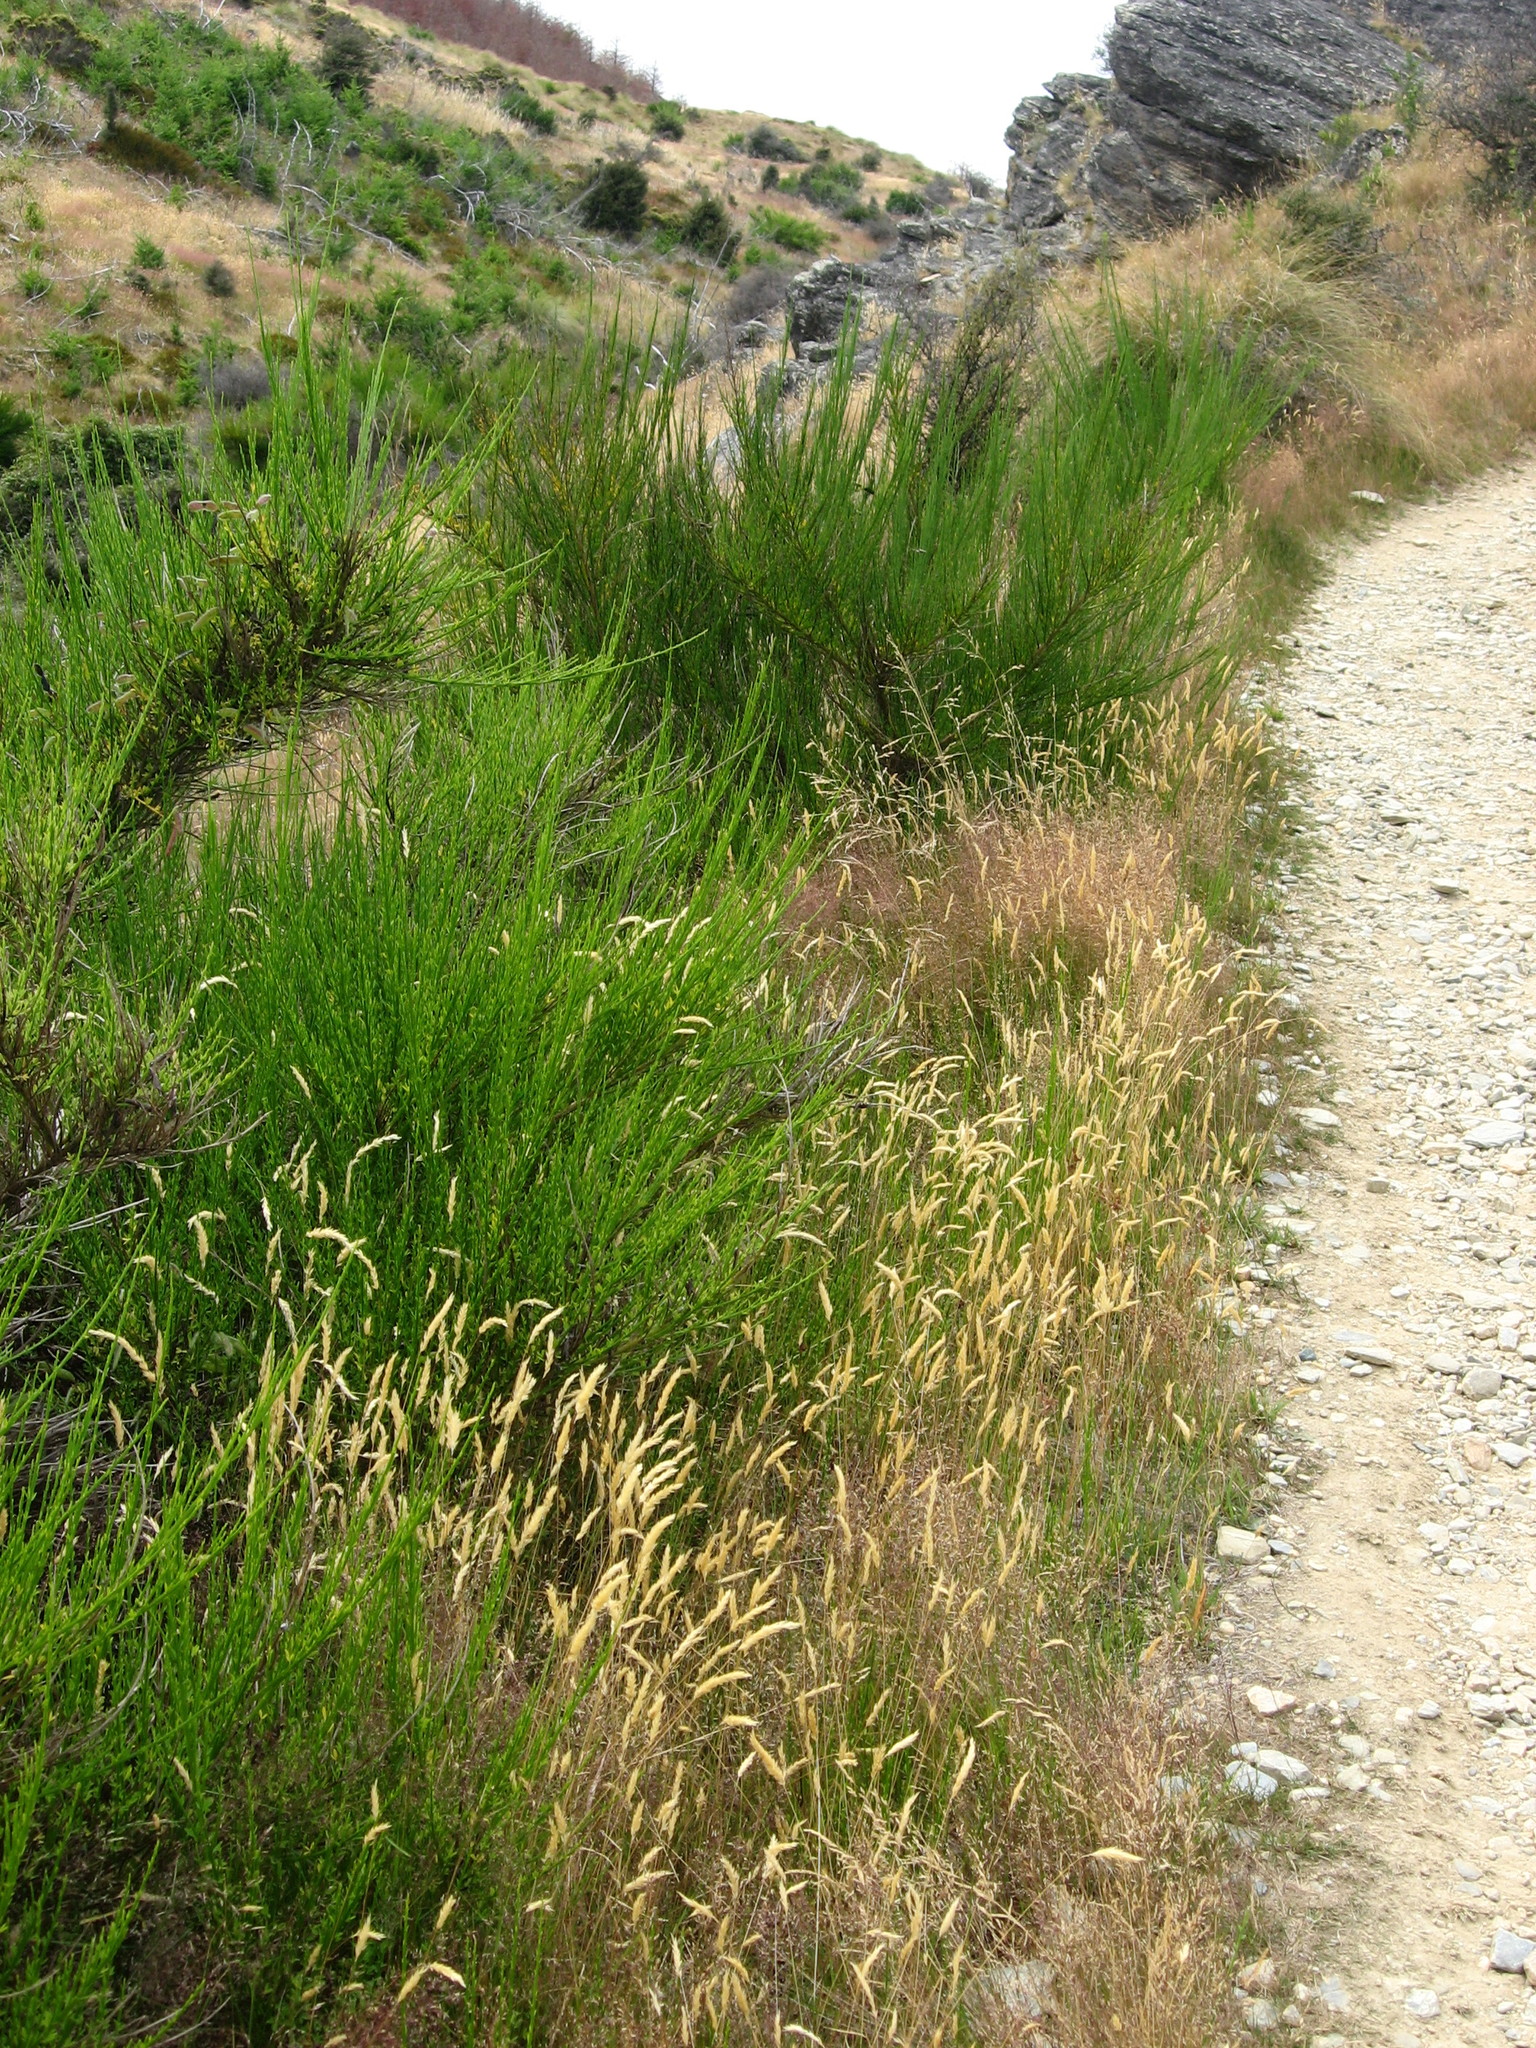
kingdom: Plantae
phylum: Tracheophyta
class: Magnoliopsida
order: Fabales
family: Fabaceae
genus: Cytisus
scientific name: Cytisus scoparius
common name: Scotch broom
